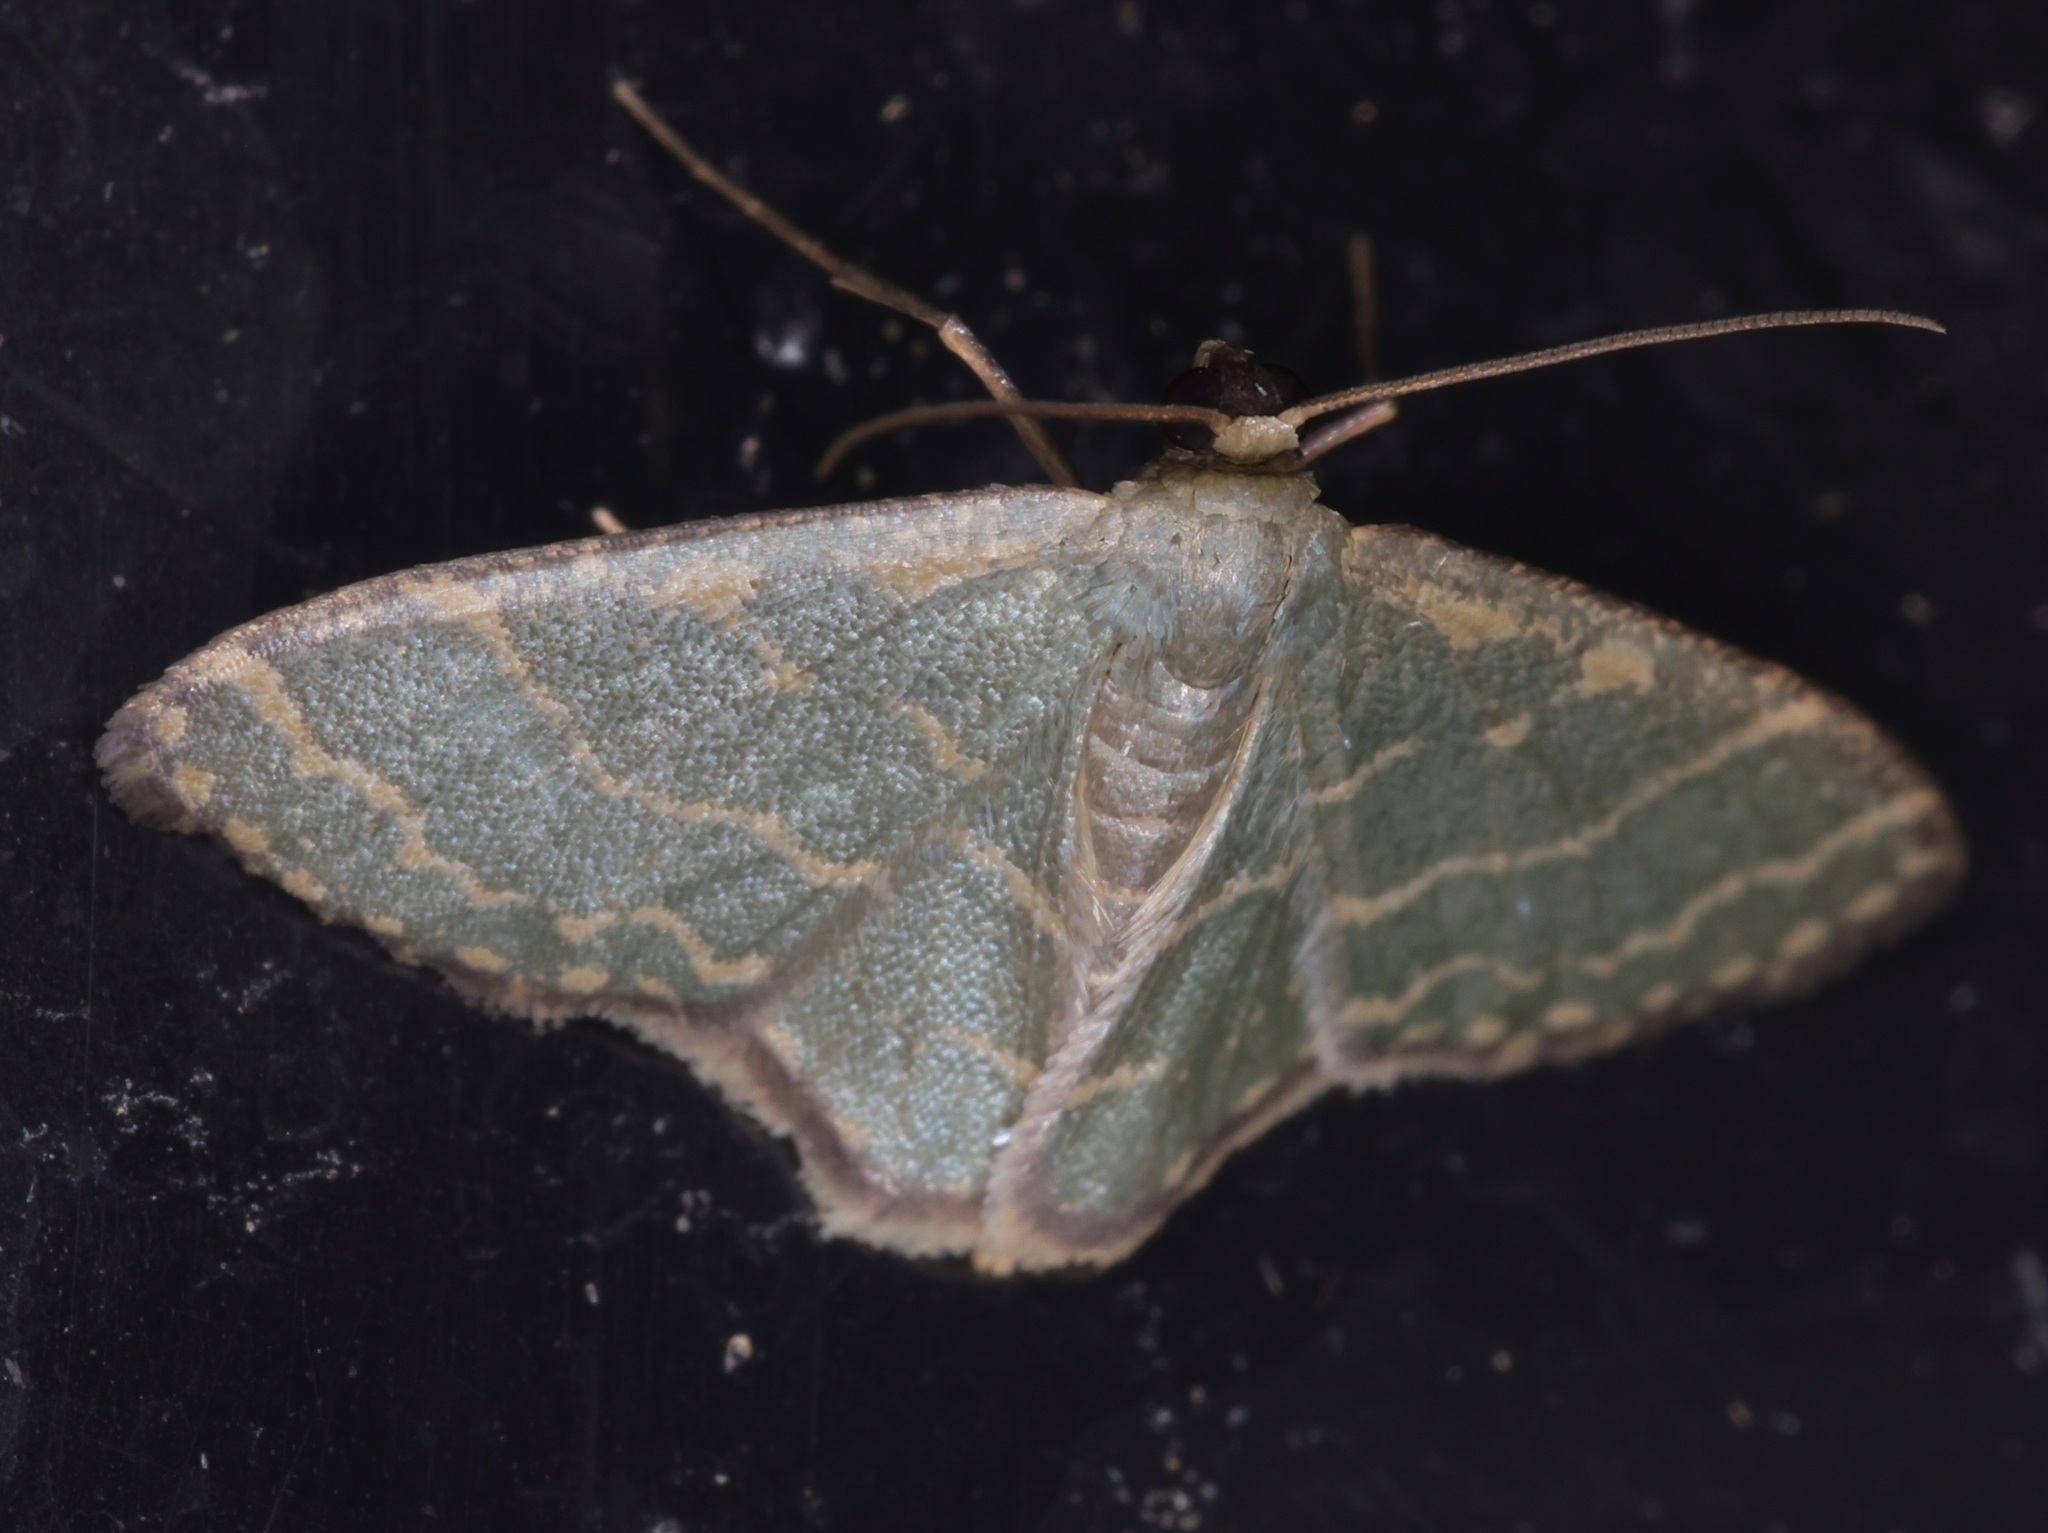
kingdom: Animalia
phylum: Arthropoda
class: Insecta
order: Lepidoptera
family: Geometridae
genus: Lophophleps
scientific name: Lophophleps triangularis
